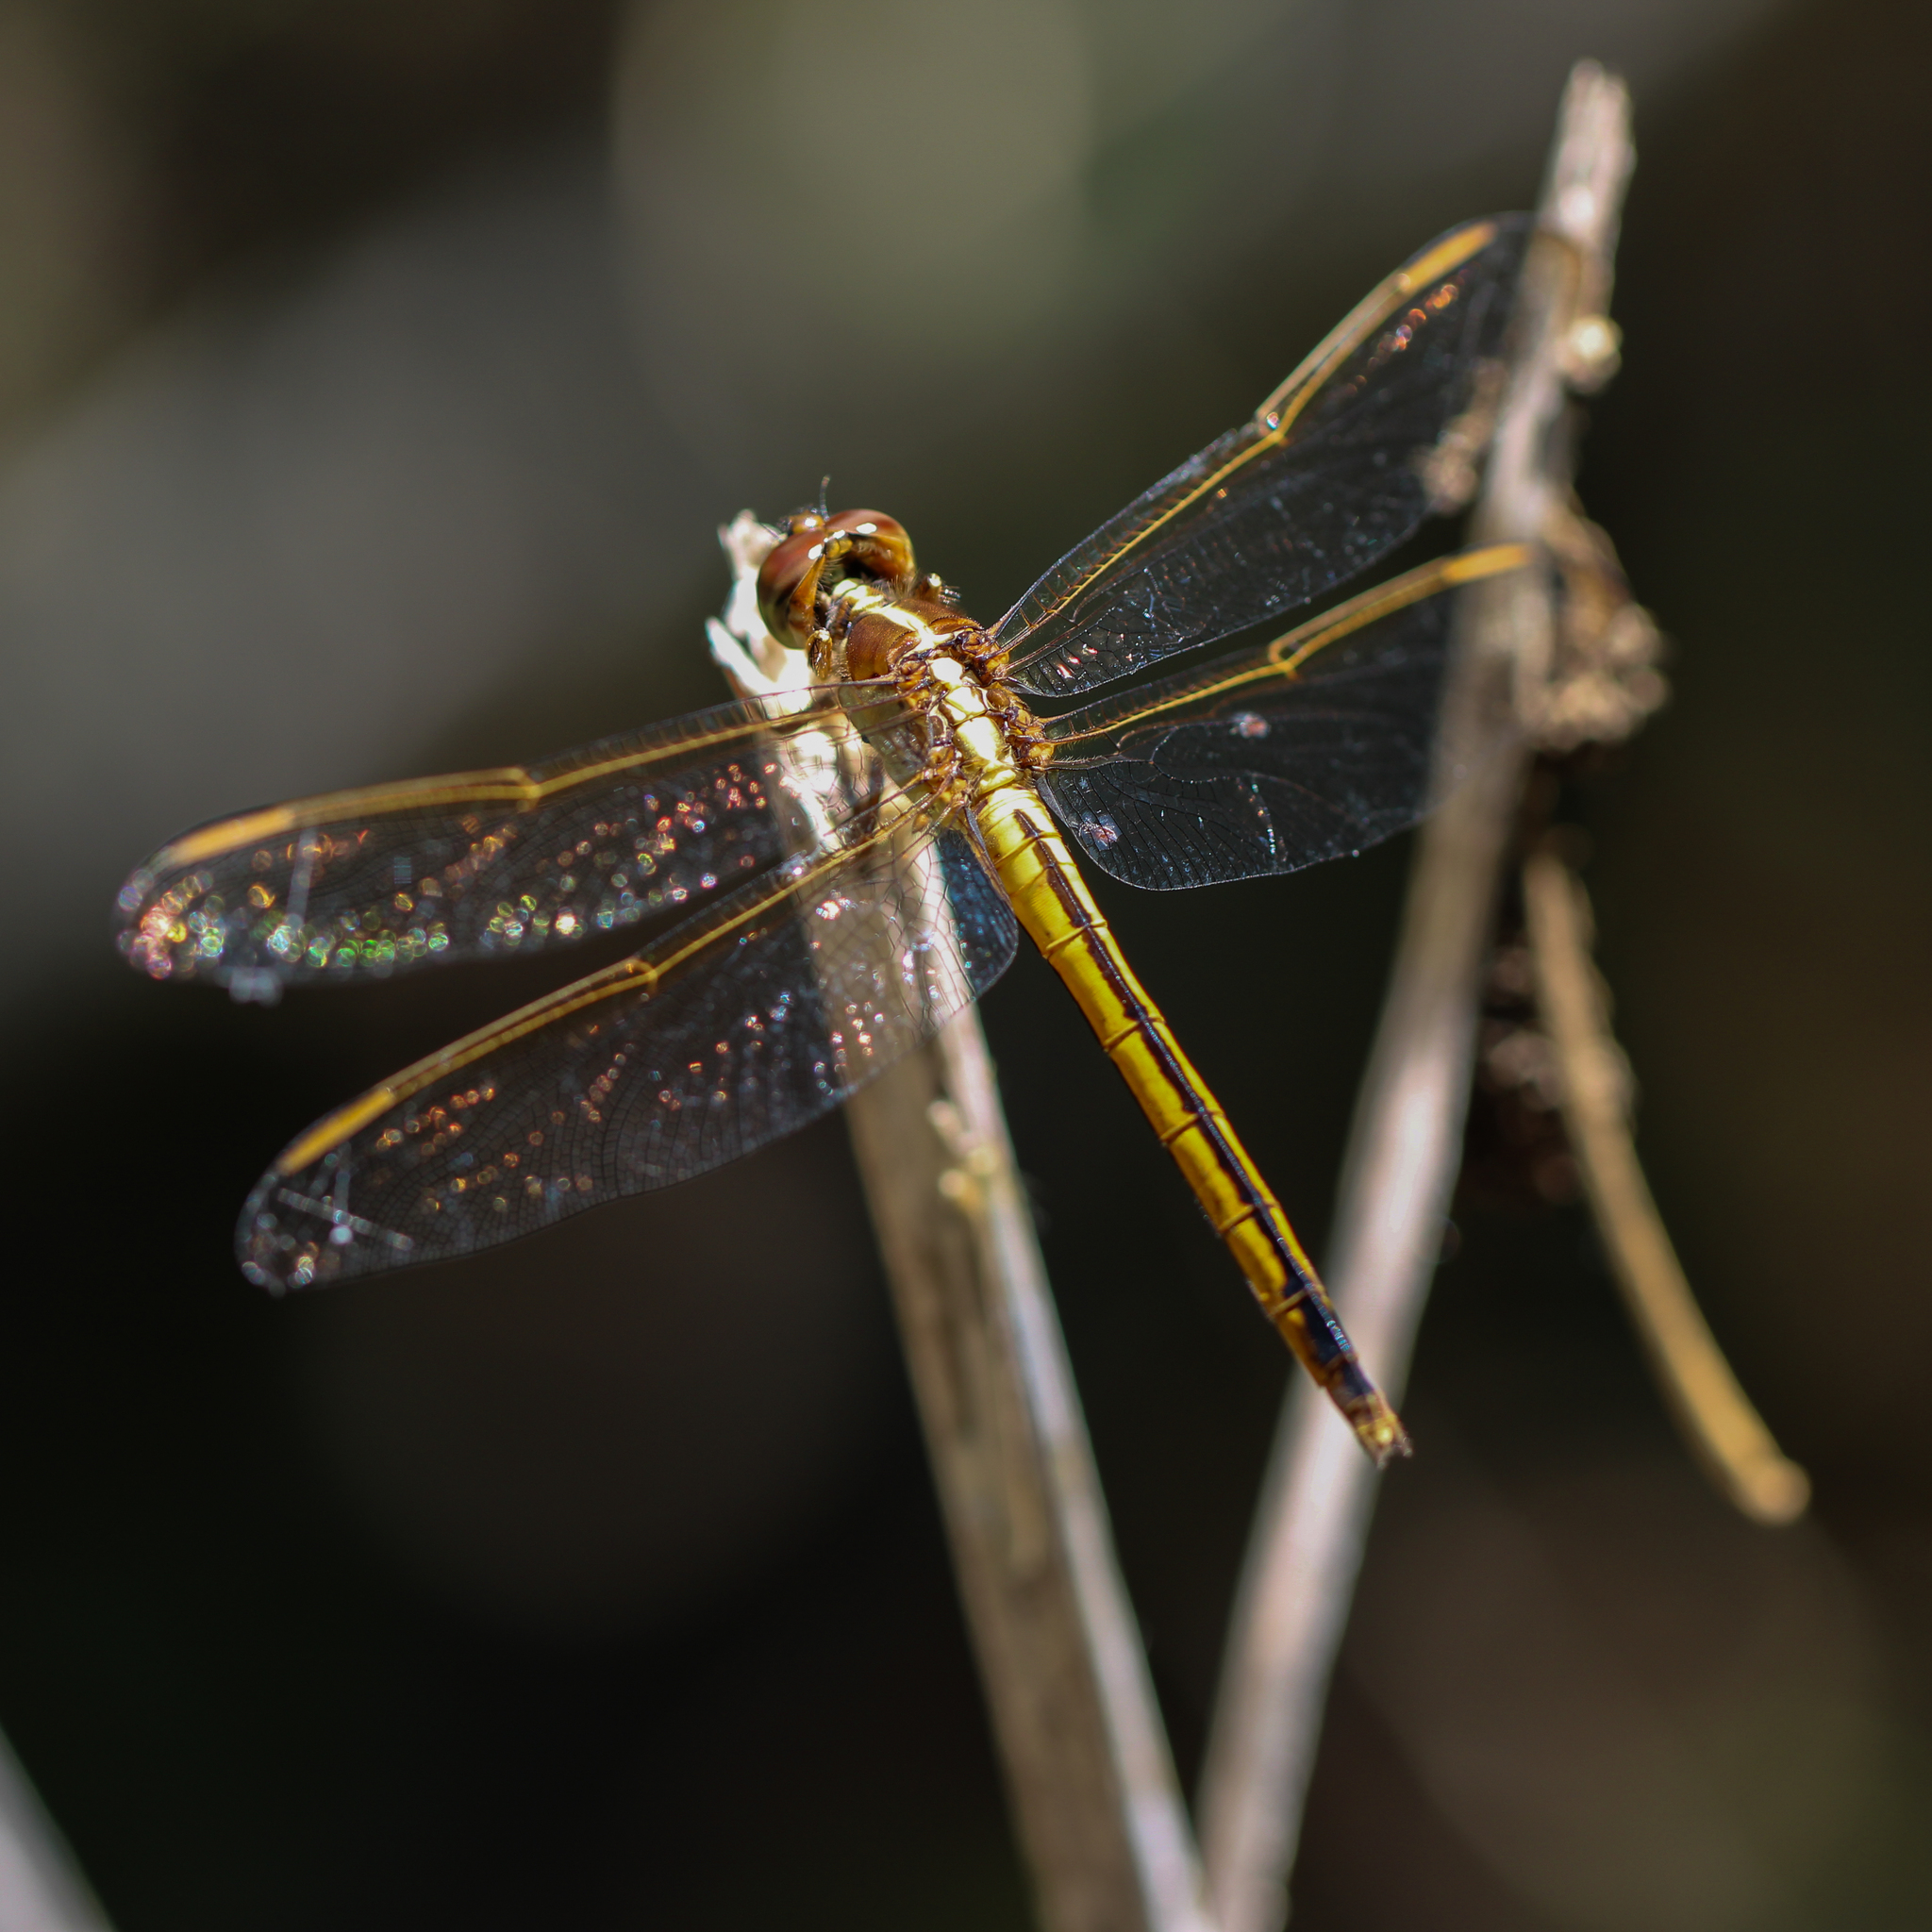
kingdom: Animalia
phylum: Arthropoda
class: Insecta
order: Odonata
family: Libellulidae
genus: Libellula
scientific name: Libellula needhami
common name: Needham's skimmer
